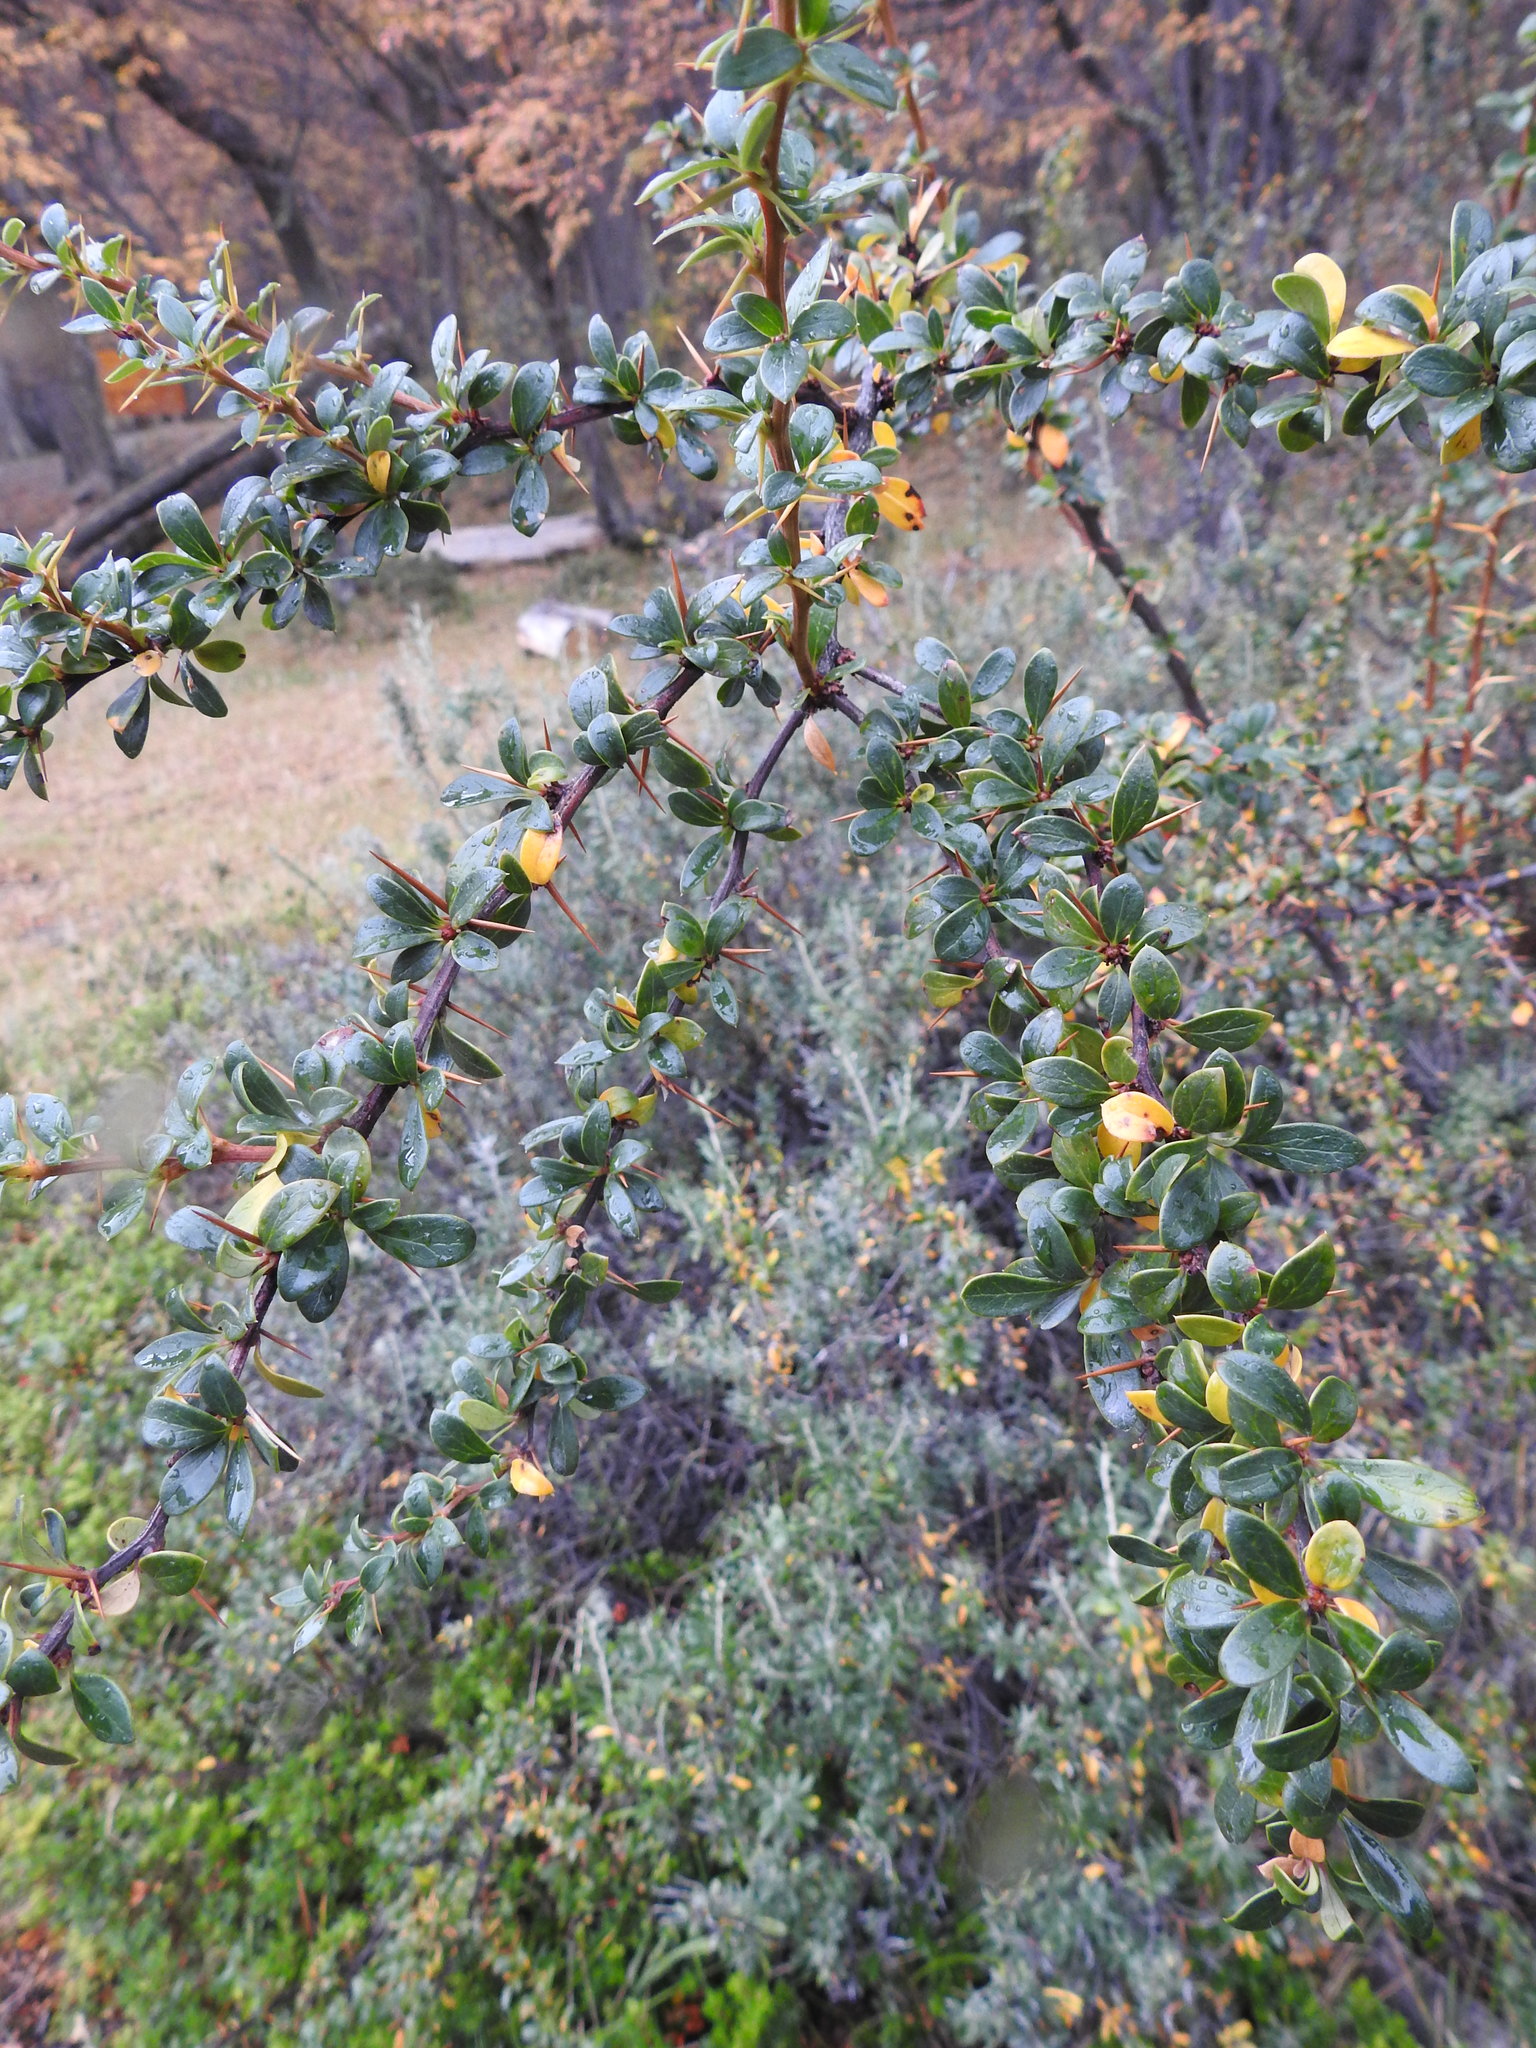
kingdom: Plantae
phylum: Tracheophyta
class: Magnoliopsida
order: Ranunculales
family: Berberidaceae
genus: Berberis
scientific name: Berberis microphylla
